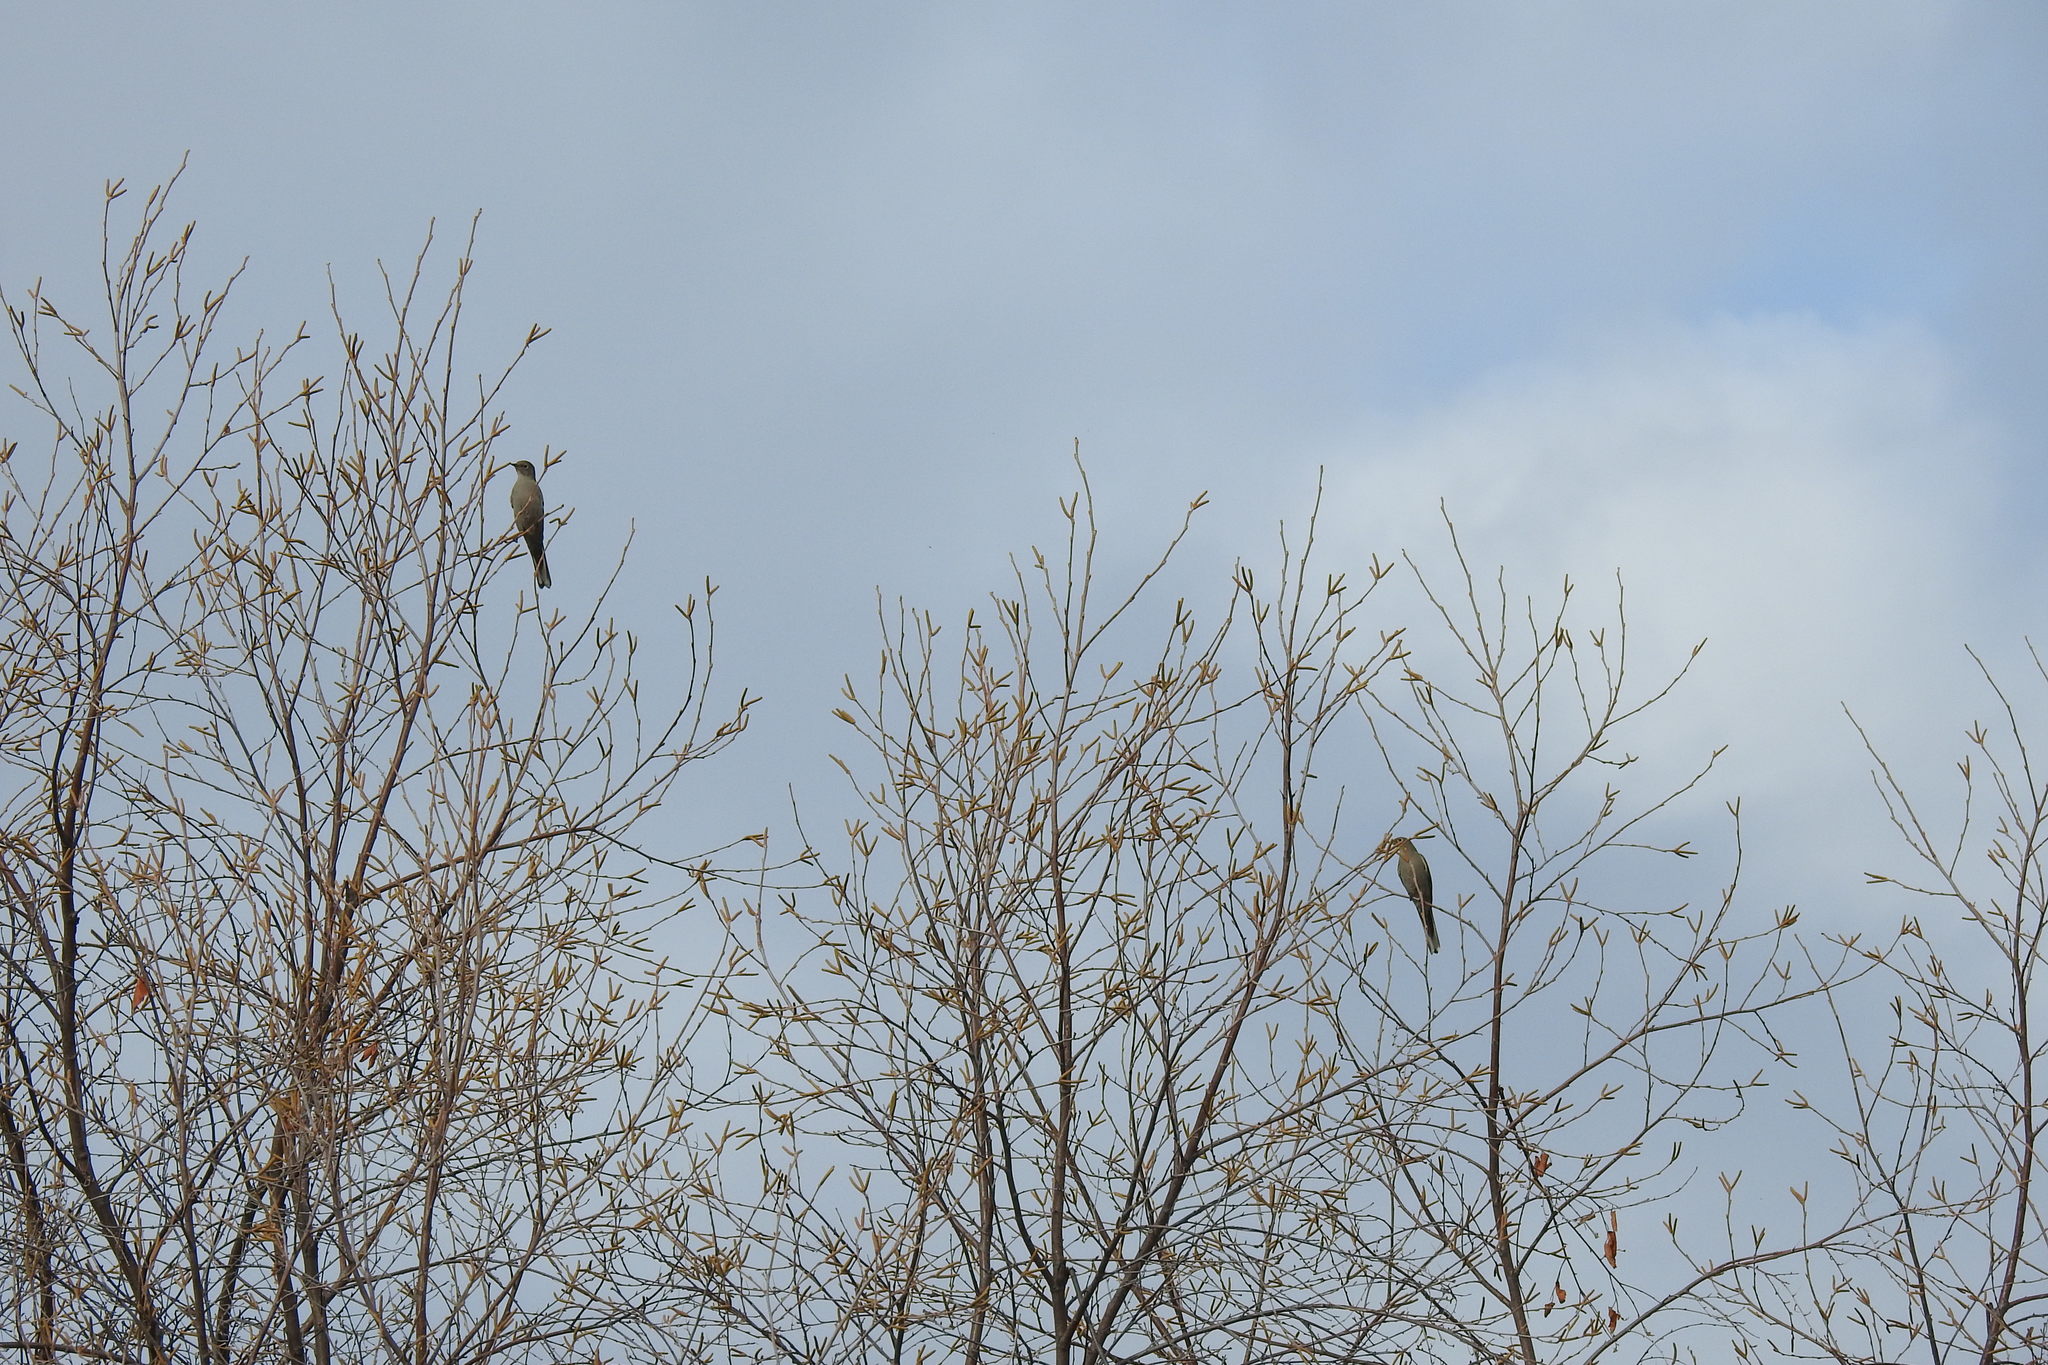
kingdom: Animalia
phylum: Chordata
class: Aves
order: Passeriformes
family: Turdidae
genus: Myadestes
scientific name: Myadestes townsendi
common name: Townsend's solitaire
